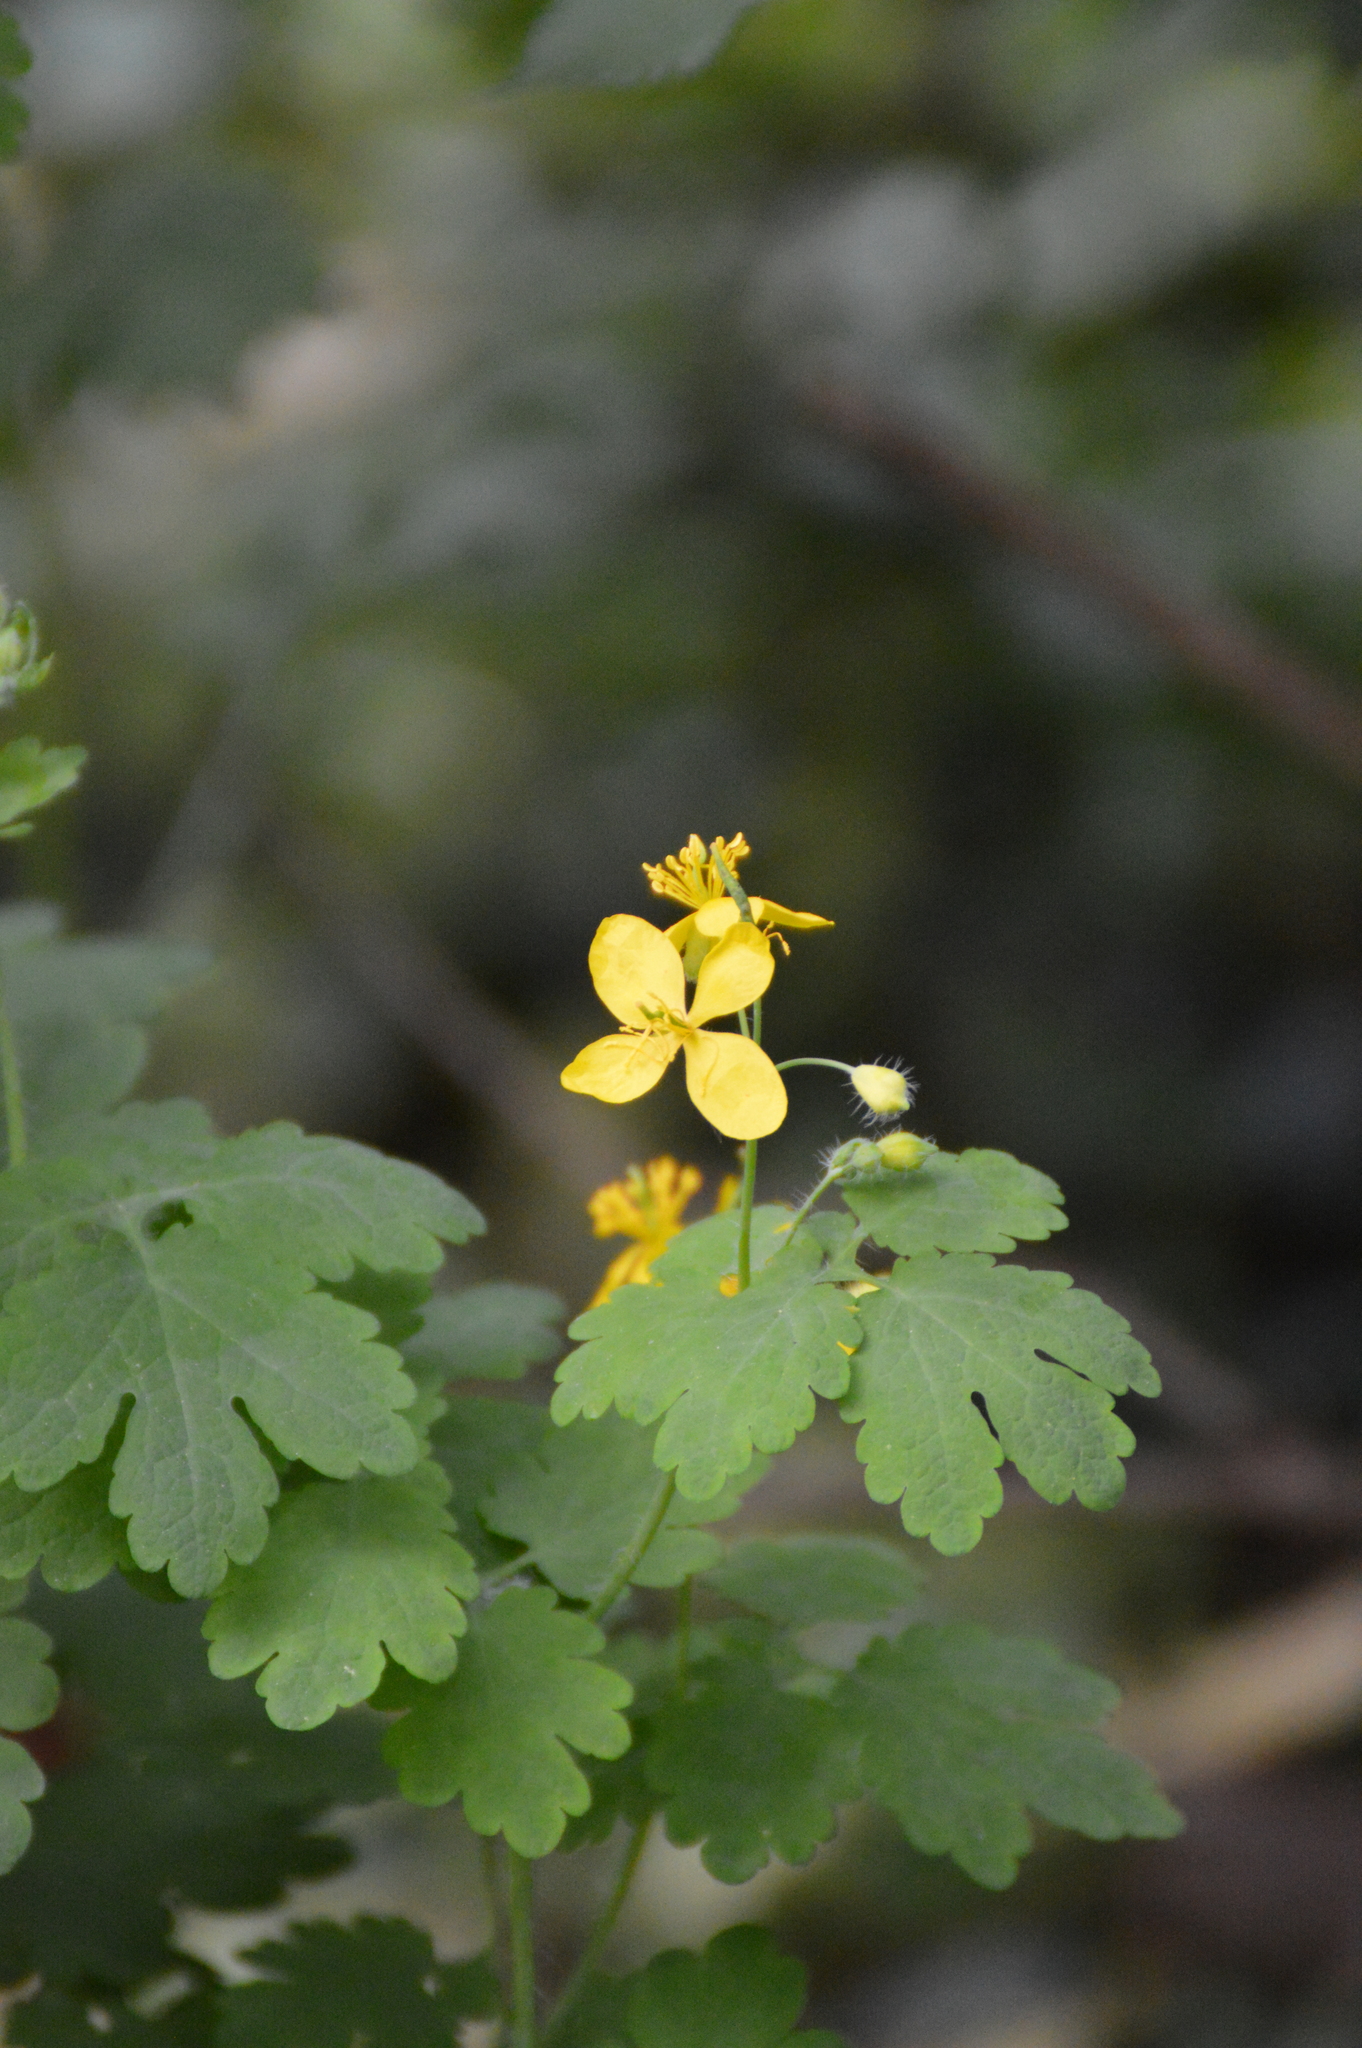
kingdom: Plantae
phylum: Tracheophyta
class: Magnoliopsida
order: Ranunculales
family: Papaveraceae
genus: Chelidonium
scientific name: Chelidonium majus
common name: Greater celandine
